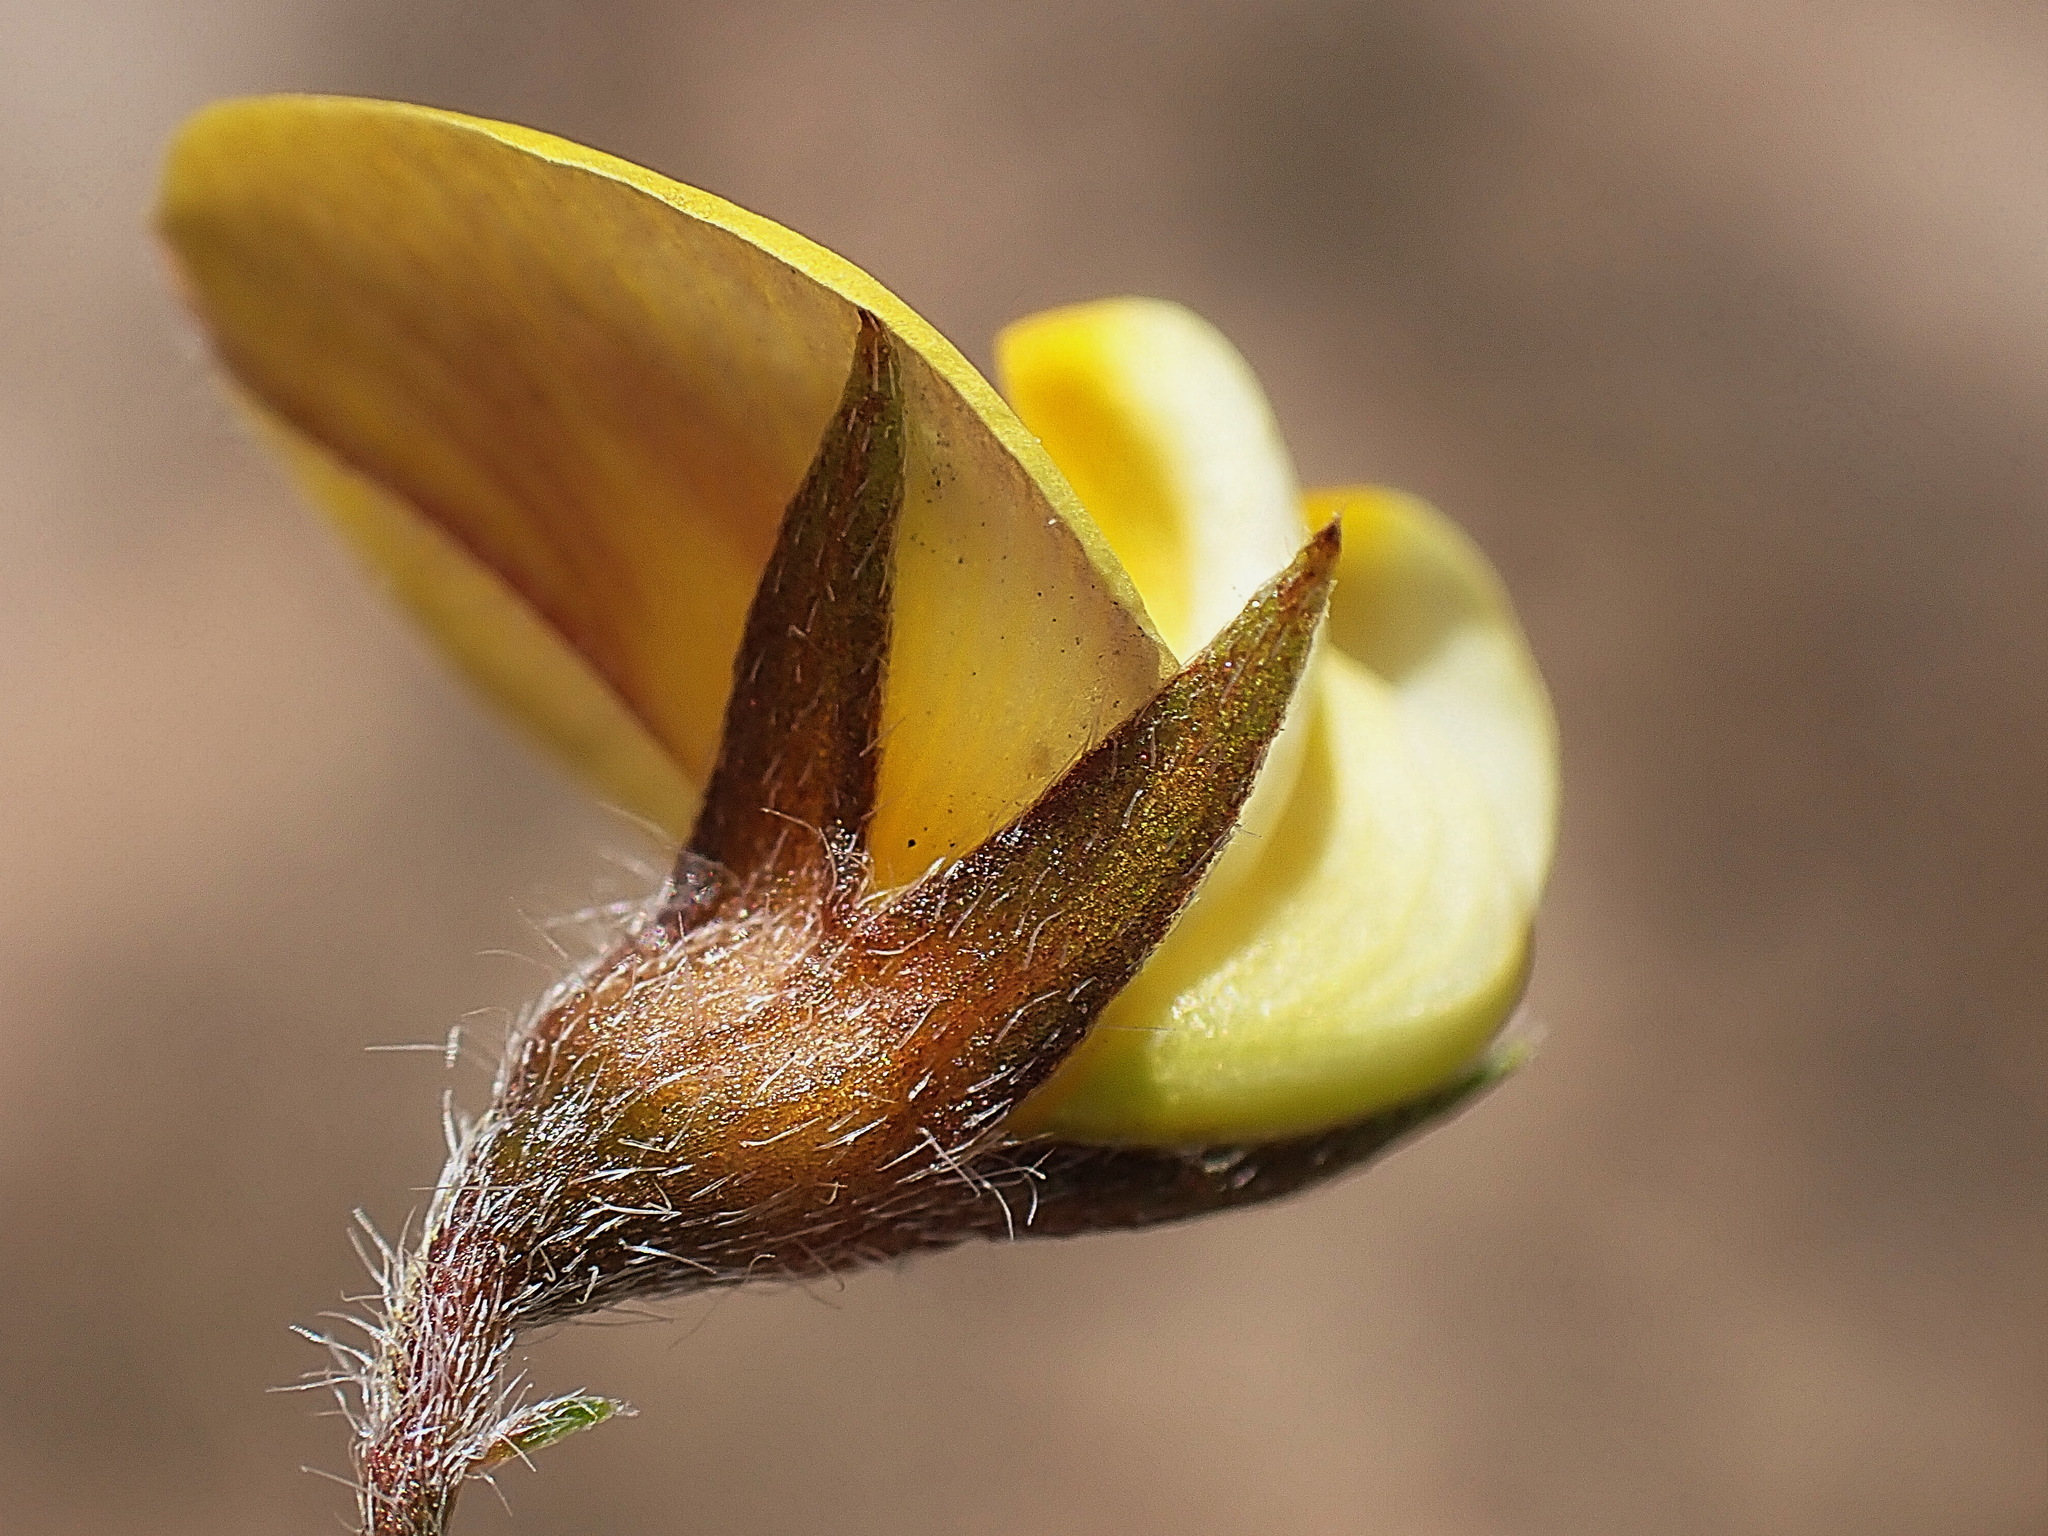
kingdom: Plantae
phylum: Tracheophyta
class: Magnoliopsida
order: Fabales
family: Fabaceae
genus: Lotononis
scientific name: Lotononis elongata
